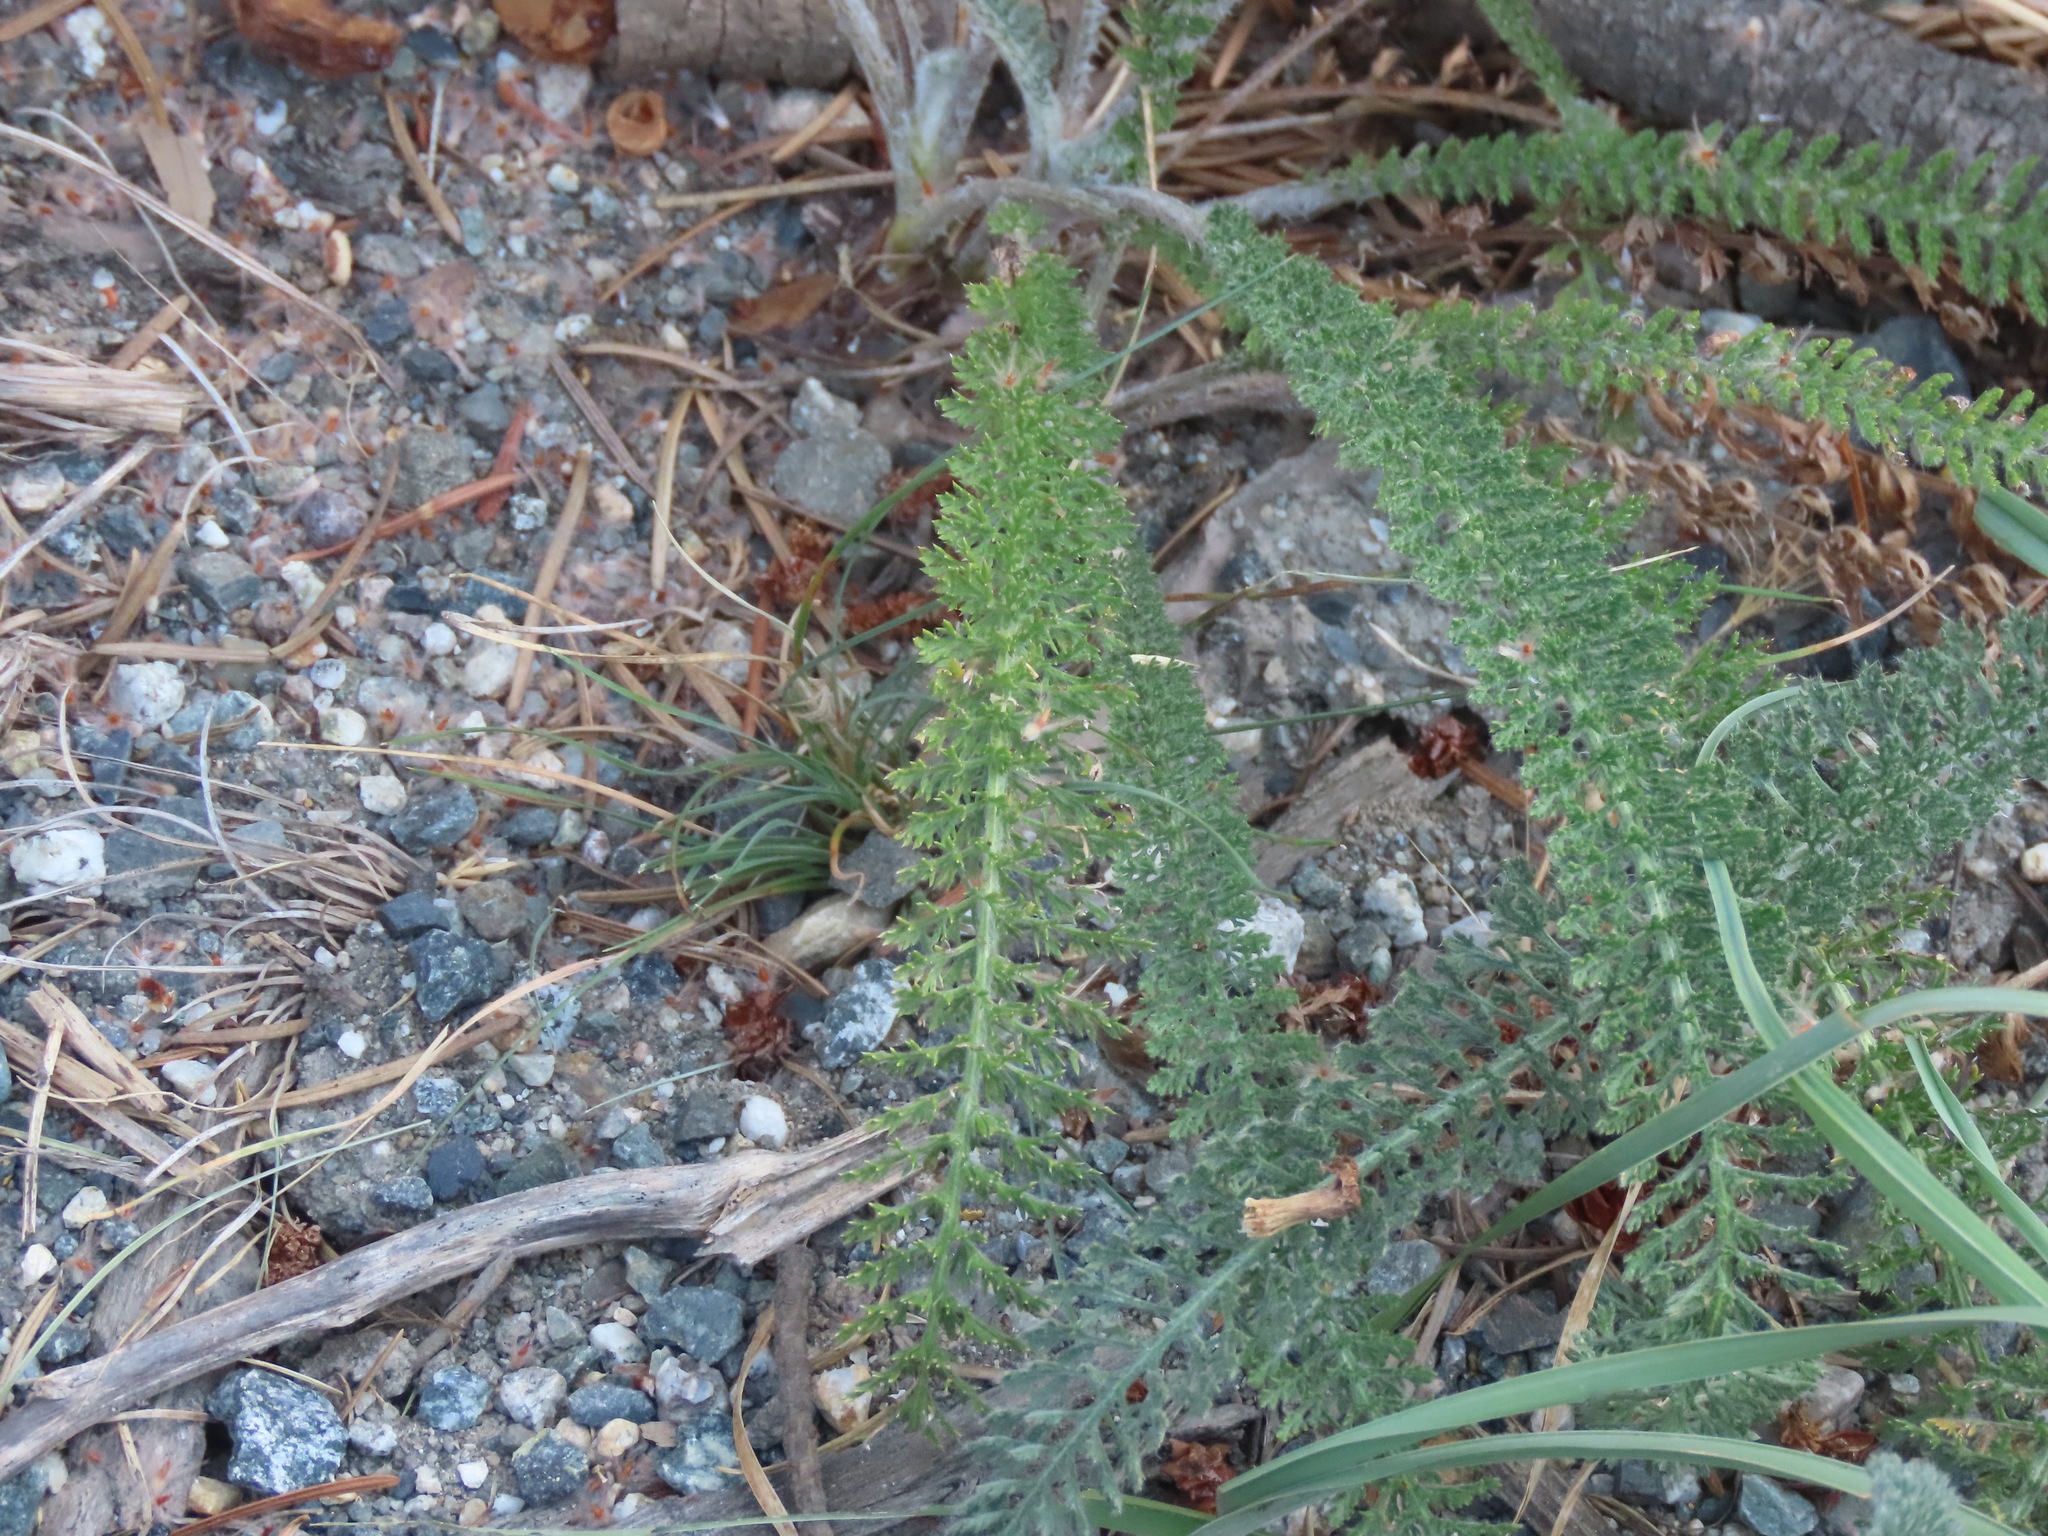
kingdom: Plantae
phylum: Tracheophyta
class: Magnoliopsida
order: Asterales
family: Asteraceae
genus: Achillea
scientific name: Achillea millefolium
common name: Yarrow
